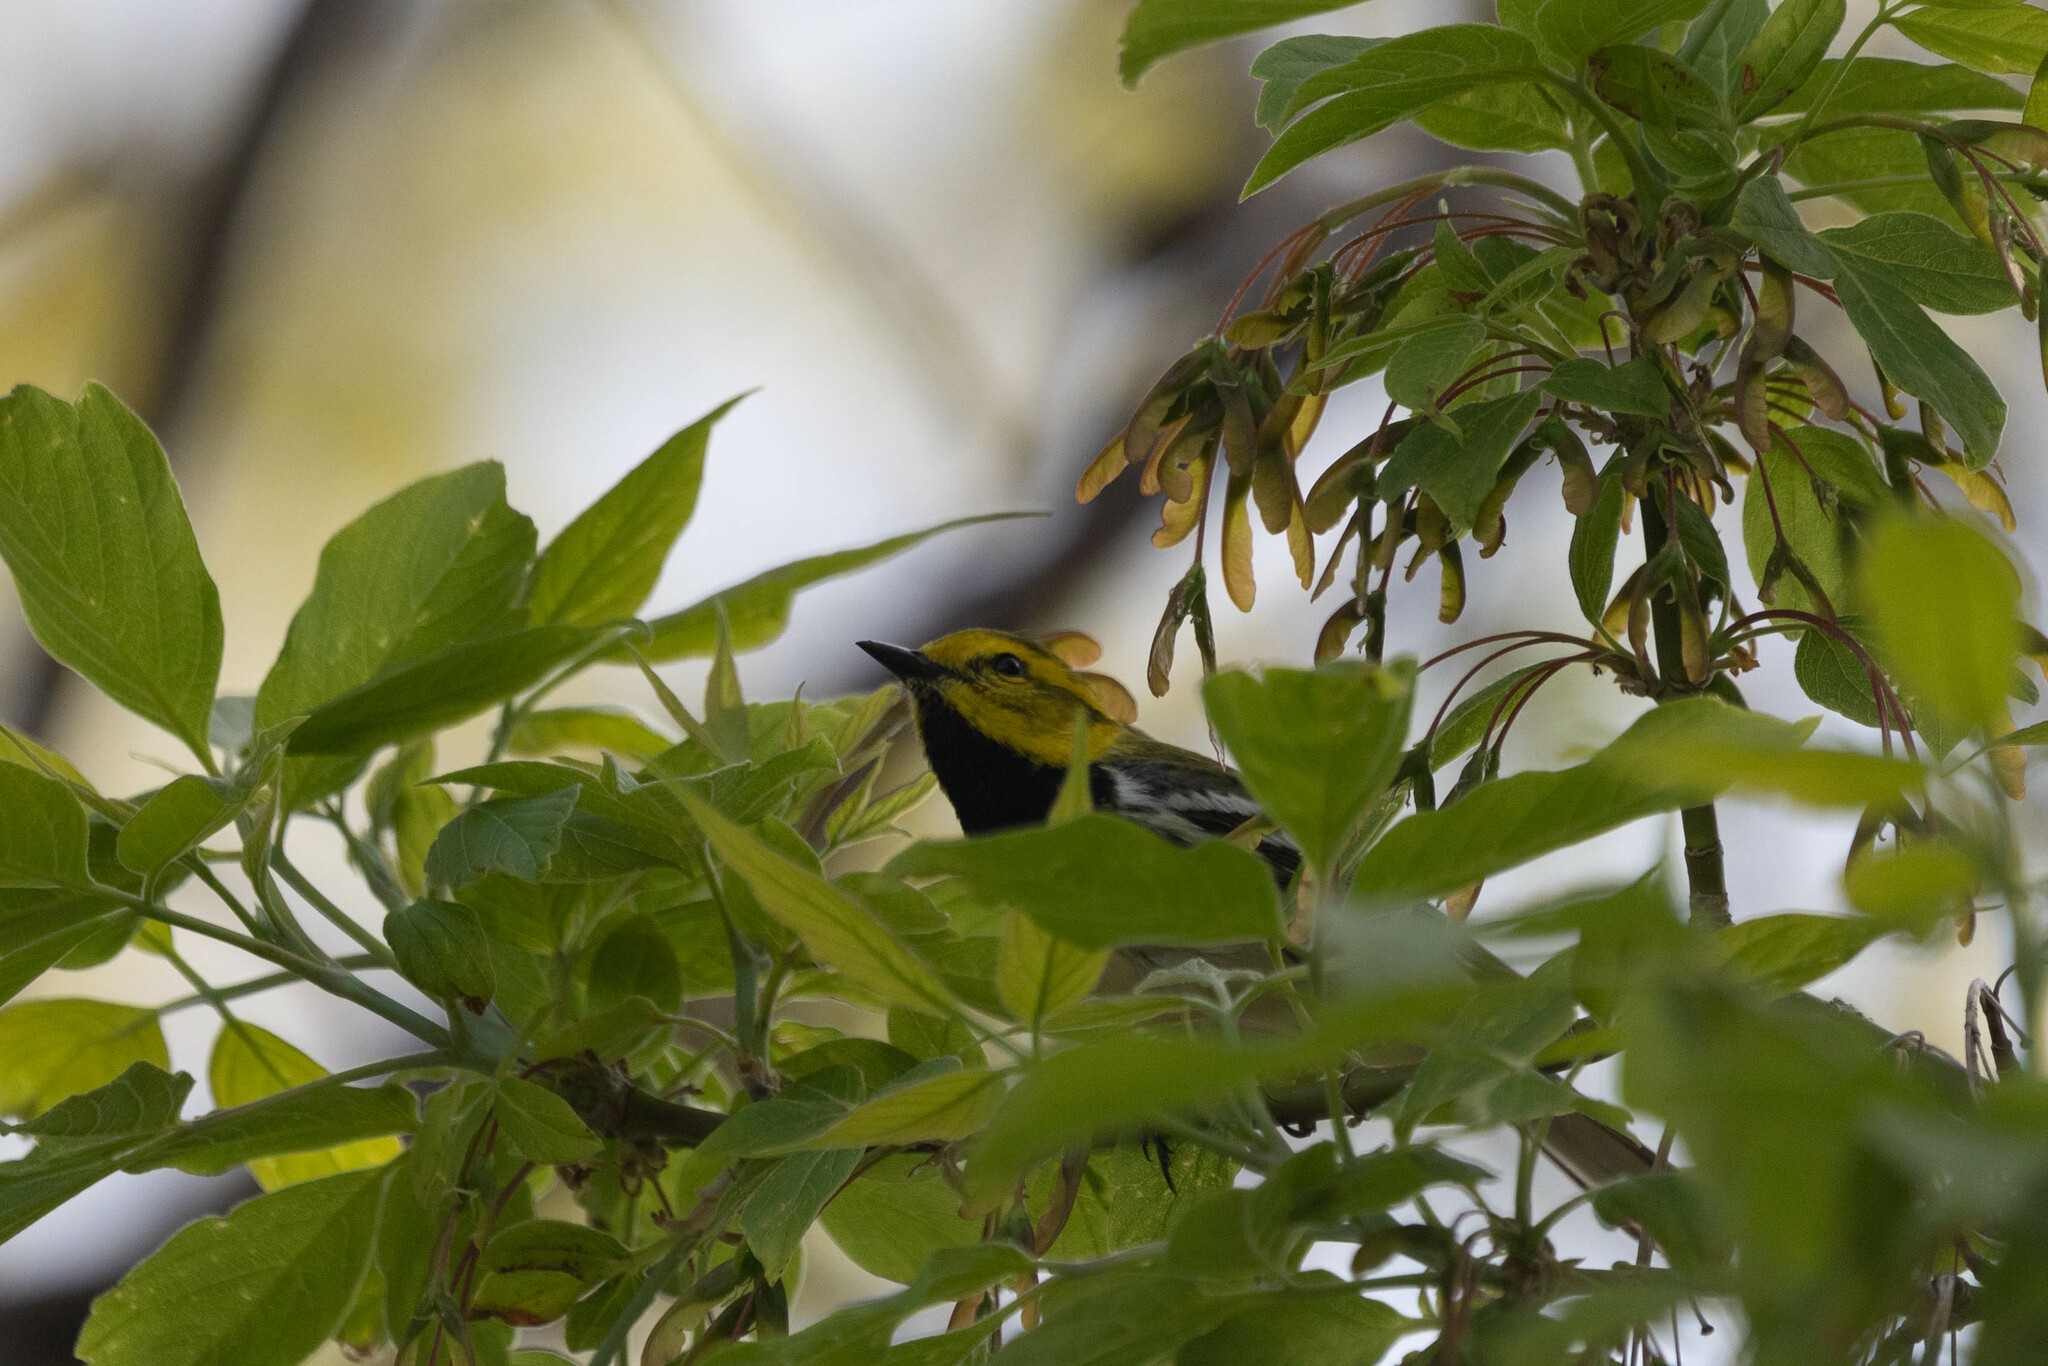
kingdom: Animalia
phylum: Chordata
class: Aves
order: Passeriformes
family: Parulidae
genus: Setophaga
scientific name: Setophaga virens
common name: Black-throated green warbler
